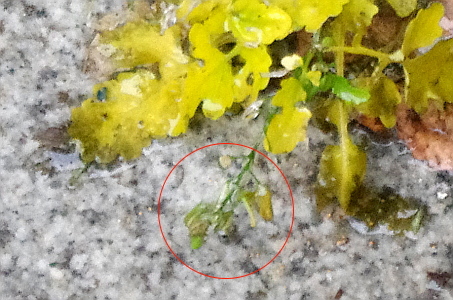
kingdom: Plantae
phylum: Tracheophyta
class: Magnoliopsida
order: Brassicales
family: Brassicaceae
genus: Rorippa
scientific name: Rorippa palustris
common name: Marsh yellow-cress
